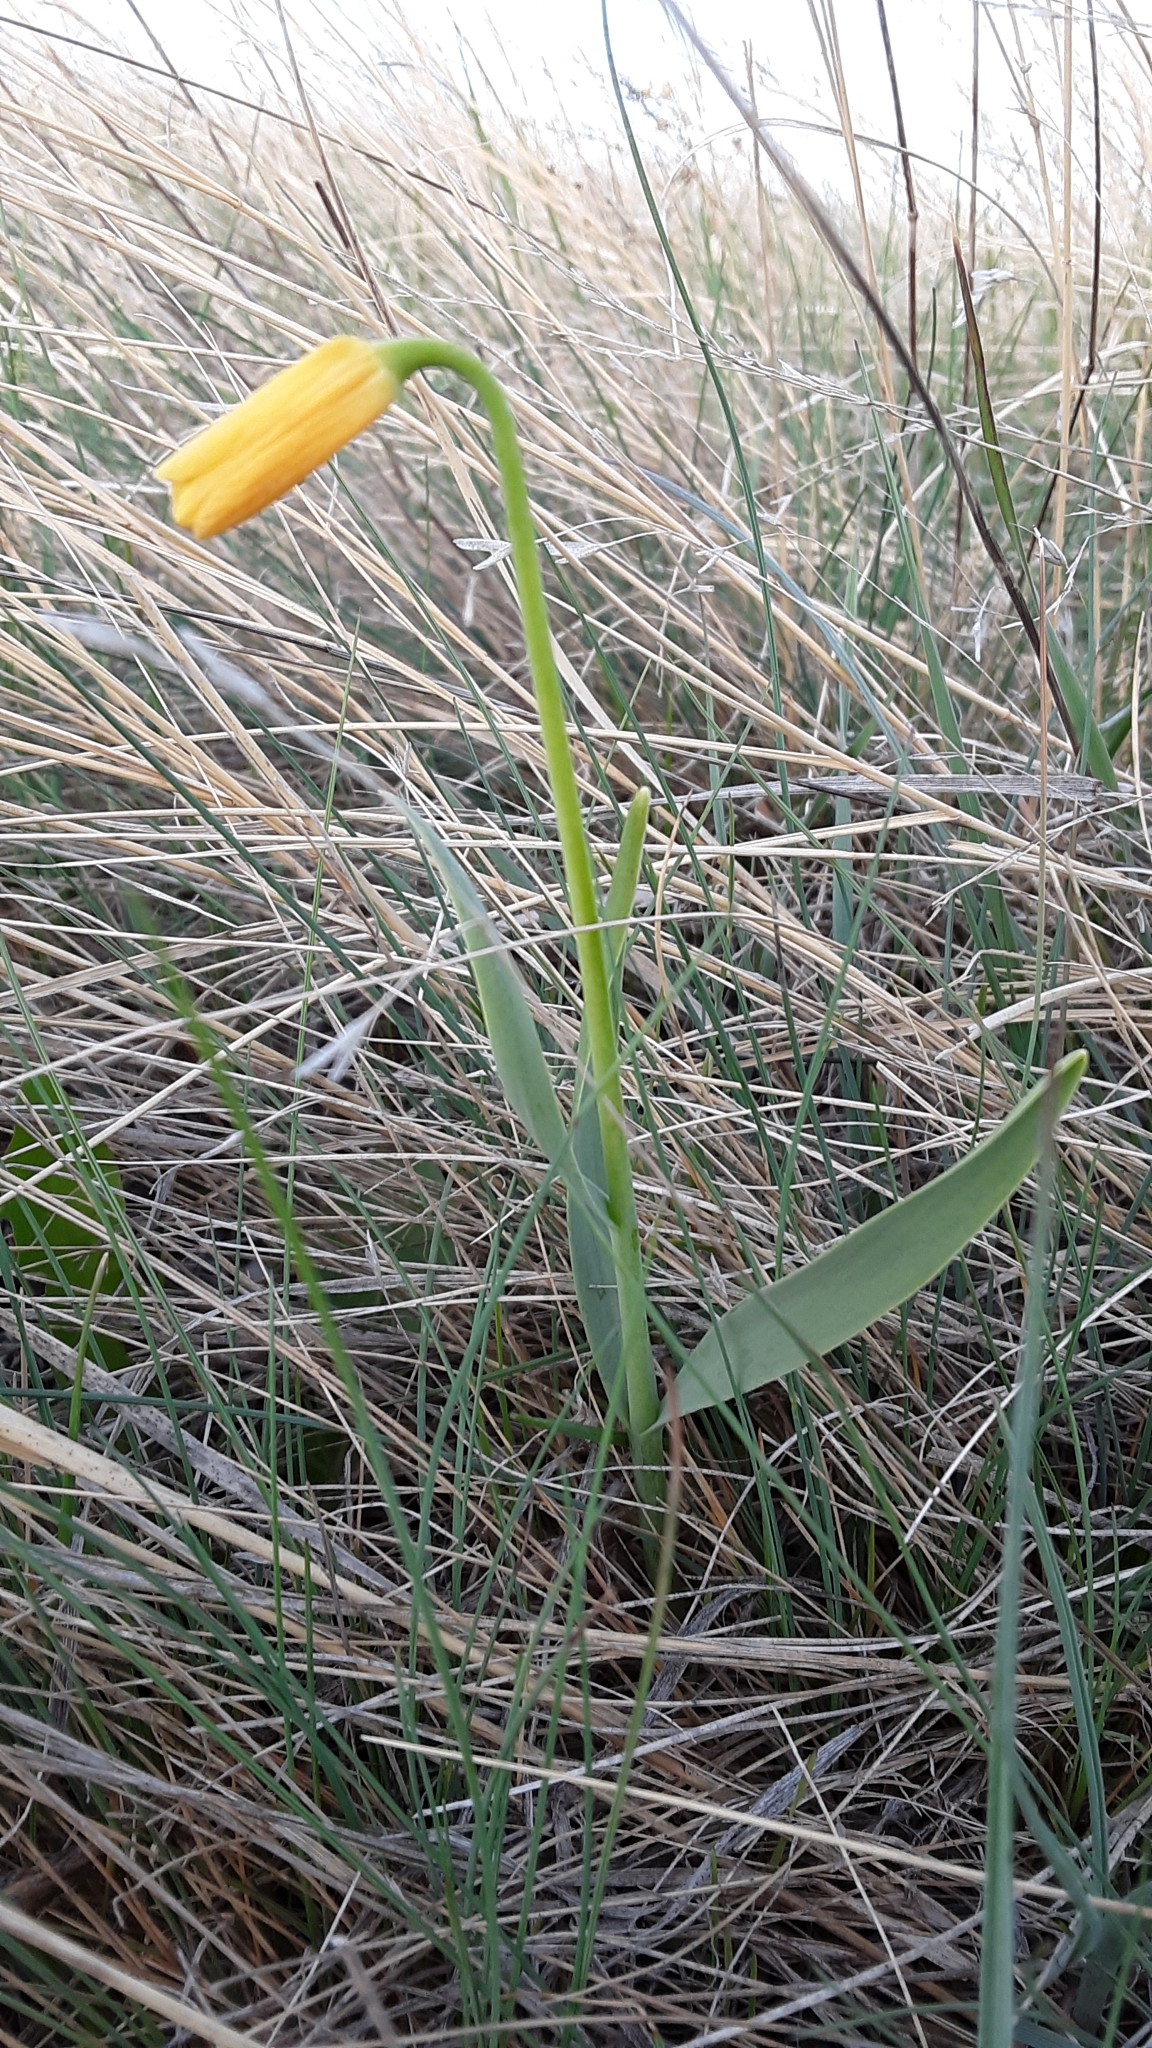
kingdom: Plantae
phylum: Tracheophyta
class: Liliopsida
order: Liliales
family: Liliaceae
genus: Fritillaria
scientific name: Fritillaria pudica
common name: Yellow fritillary
